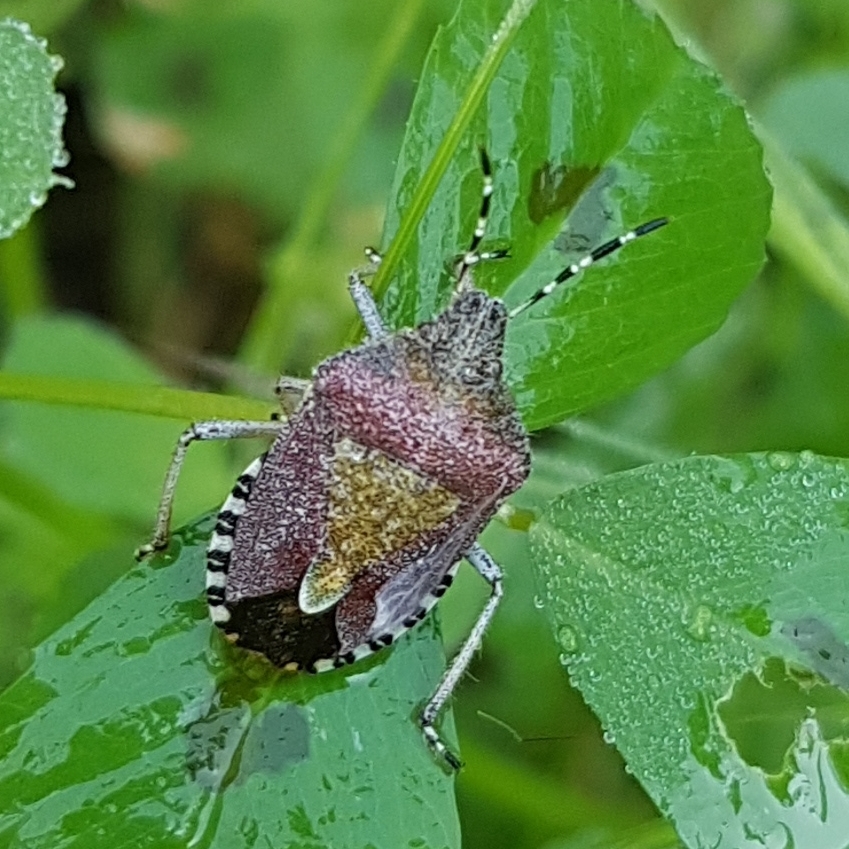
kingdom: Animalia
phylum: Arthropoda
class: Insecta
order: Hemiptera
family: Pentatomidae
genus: Dolycoris
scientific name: Dolycoris baccarum
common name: Sloe bug
